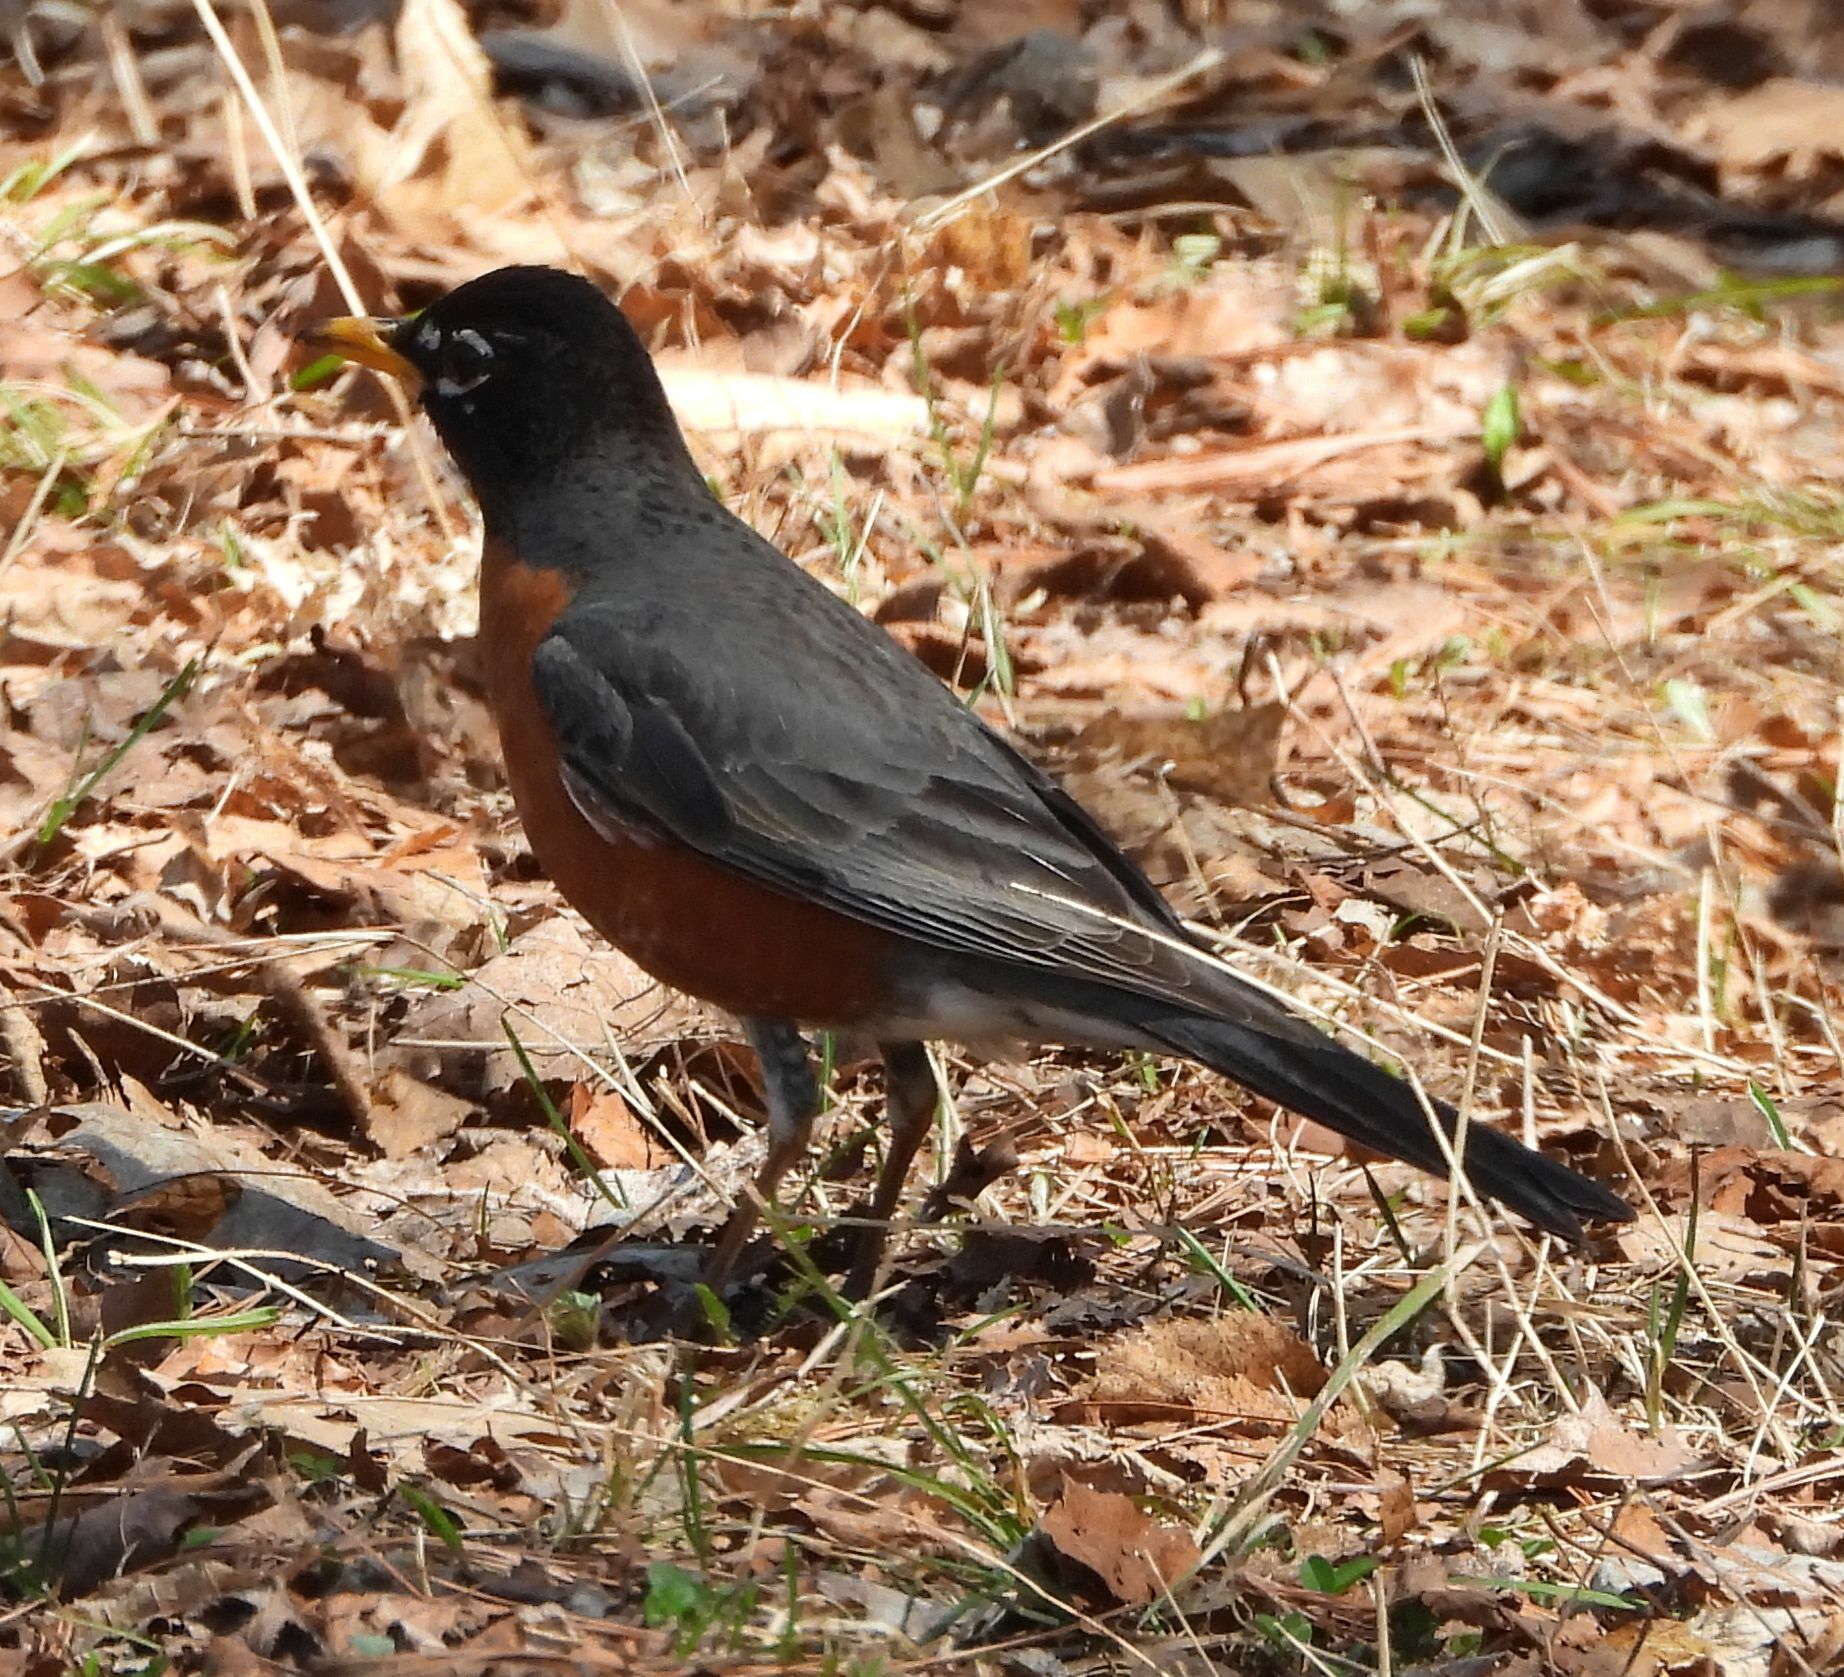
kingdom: Animalia
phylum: Chordata
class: Aves
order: Passeriformes
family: Turdidae
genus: Turdus
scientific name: Turdus migratorius
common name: American robin
